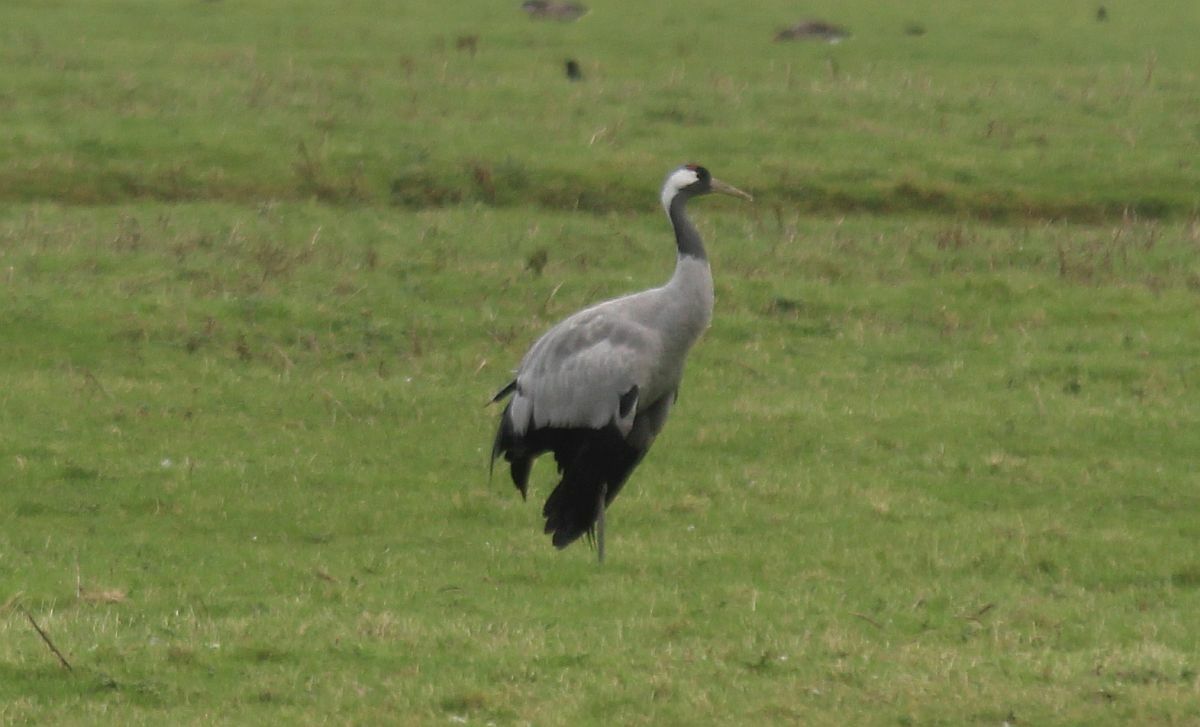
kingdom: Animalia
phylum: Chordata
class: Aves
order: Gruiformes
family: Gruidae
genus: Grus
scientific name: Grus grus
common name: Common crane
